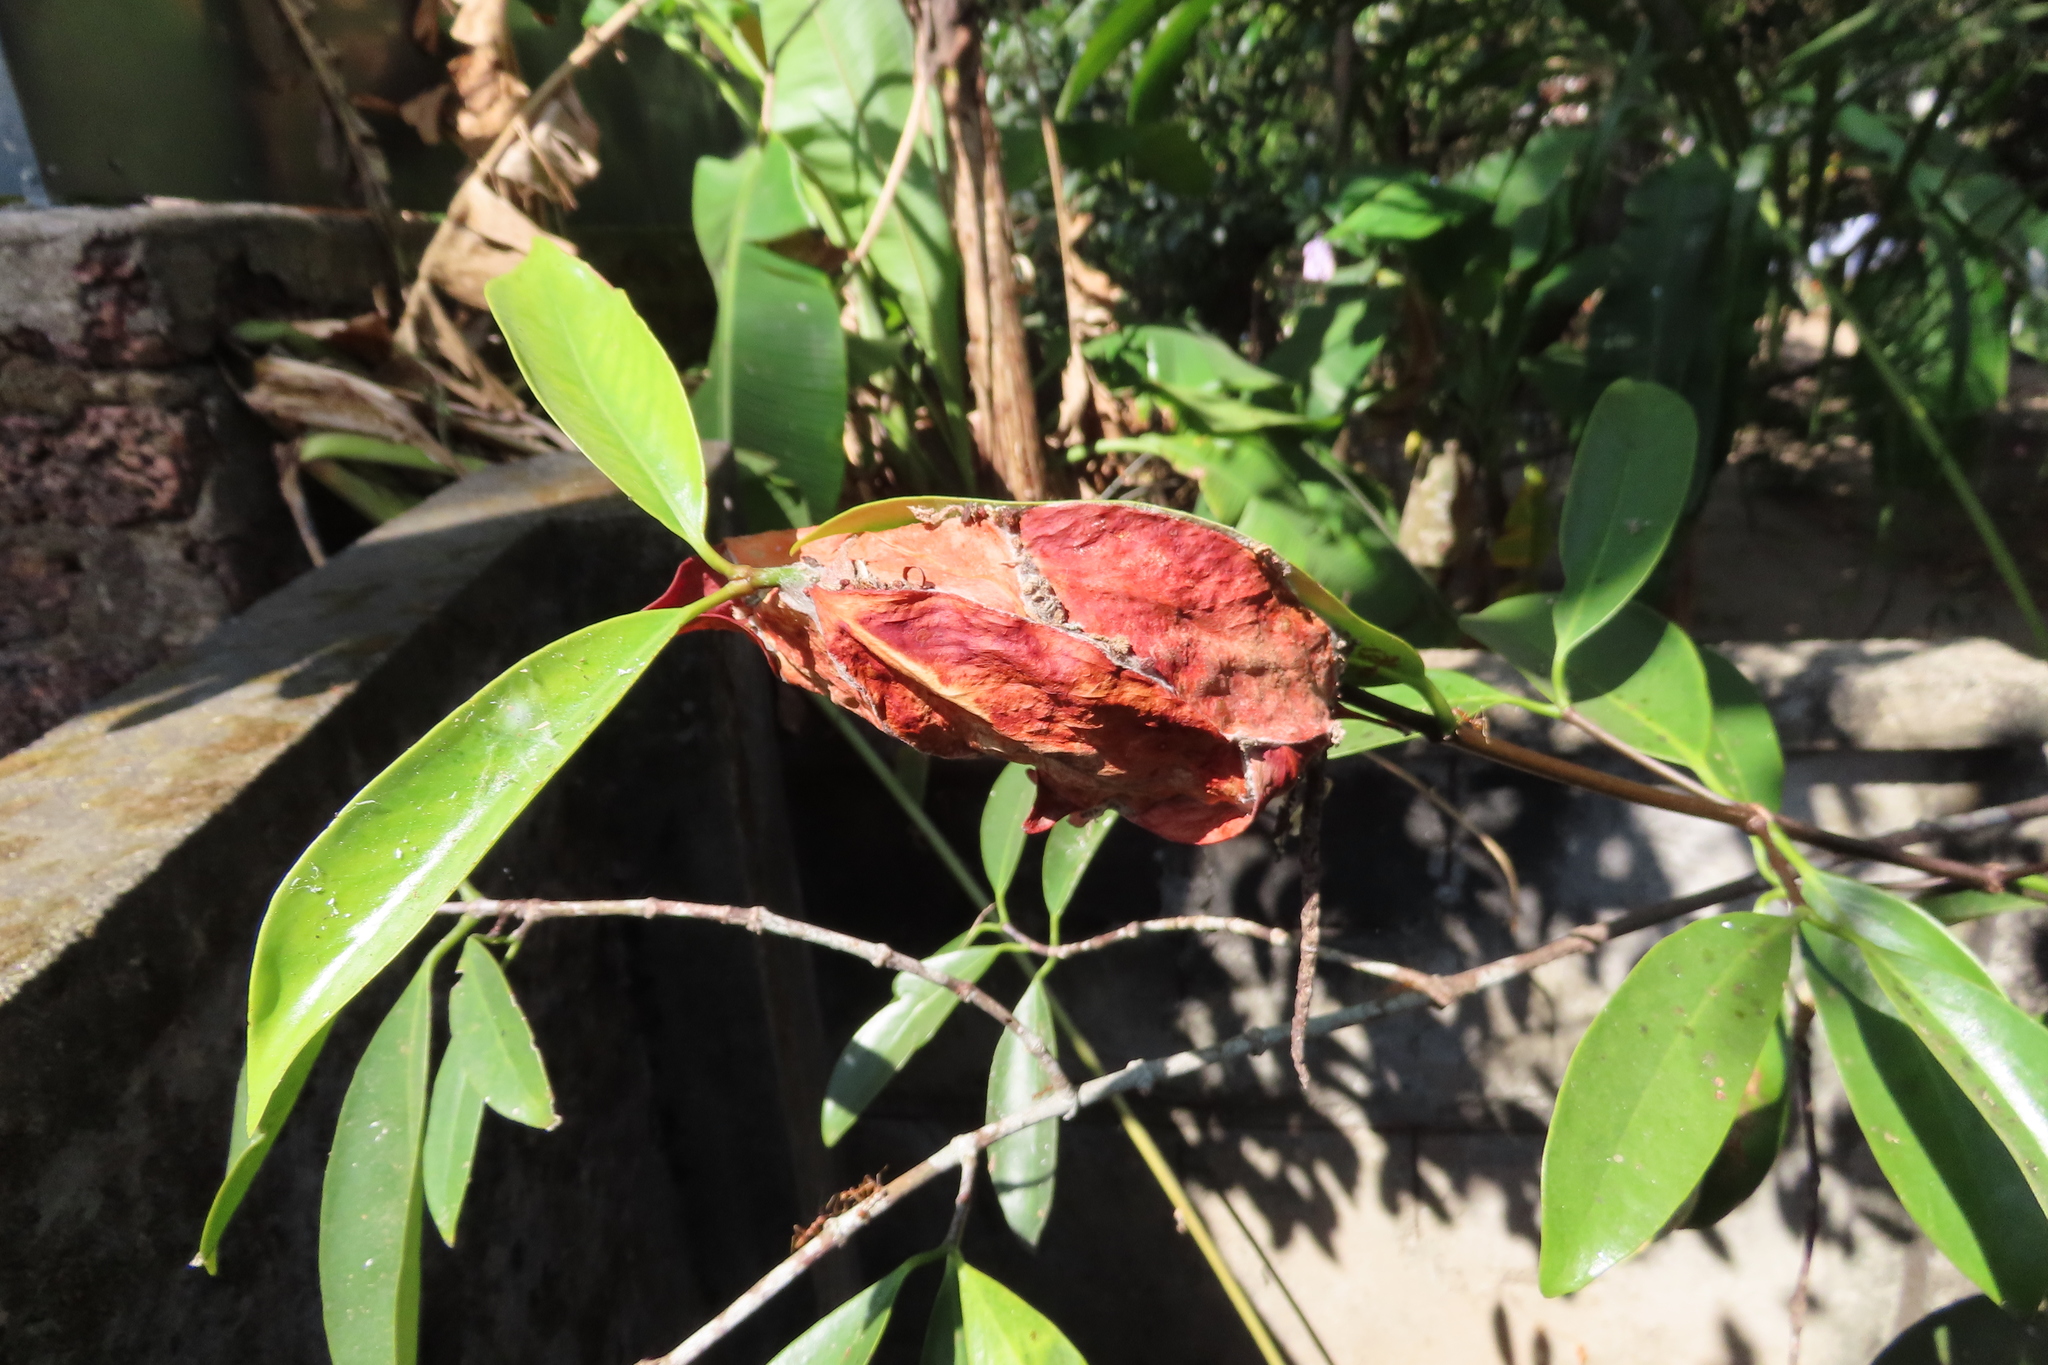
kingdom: Animalia
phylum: Arthropoda
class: Insecta
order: Hymenoptera
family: Formicidae
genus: Oecophylla
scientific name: Oecophylla smaragdina
